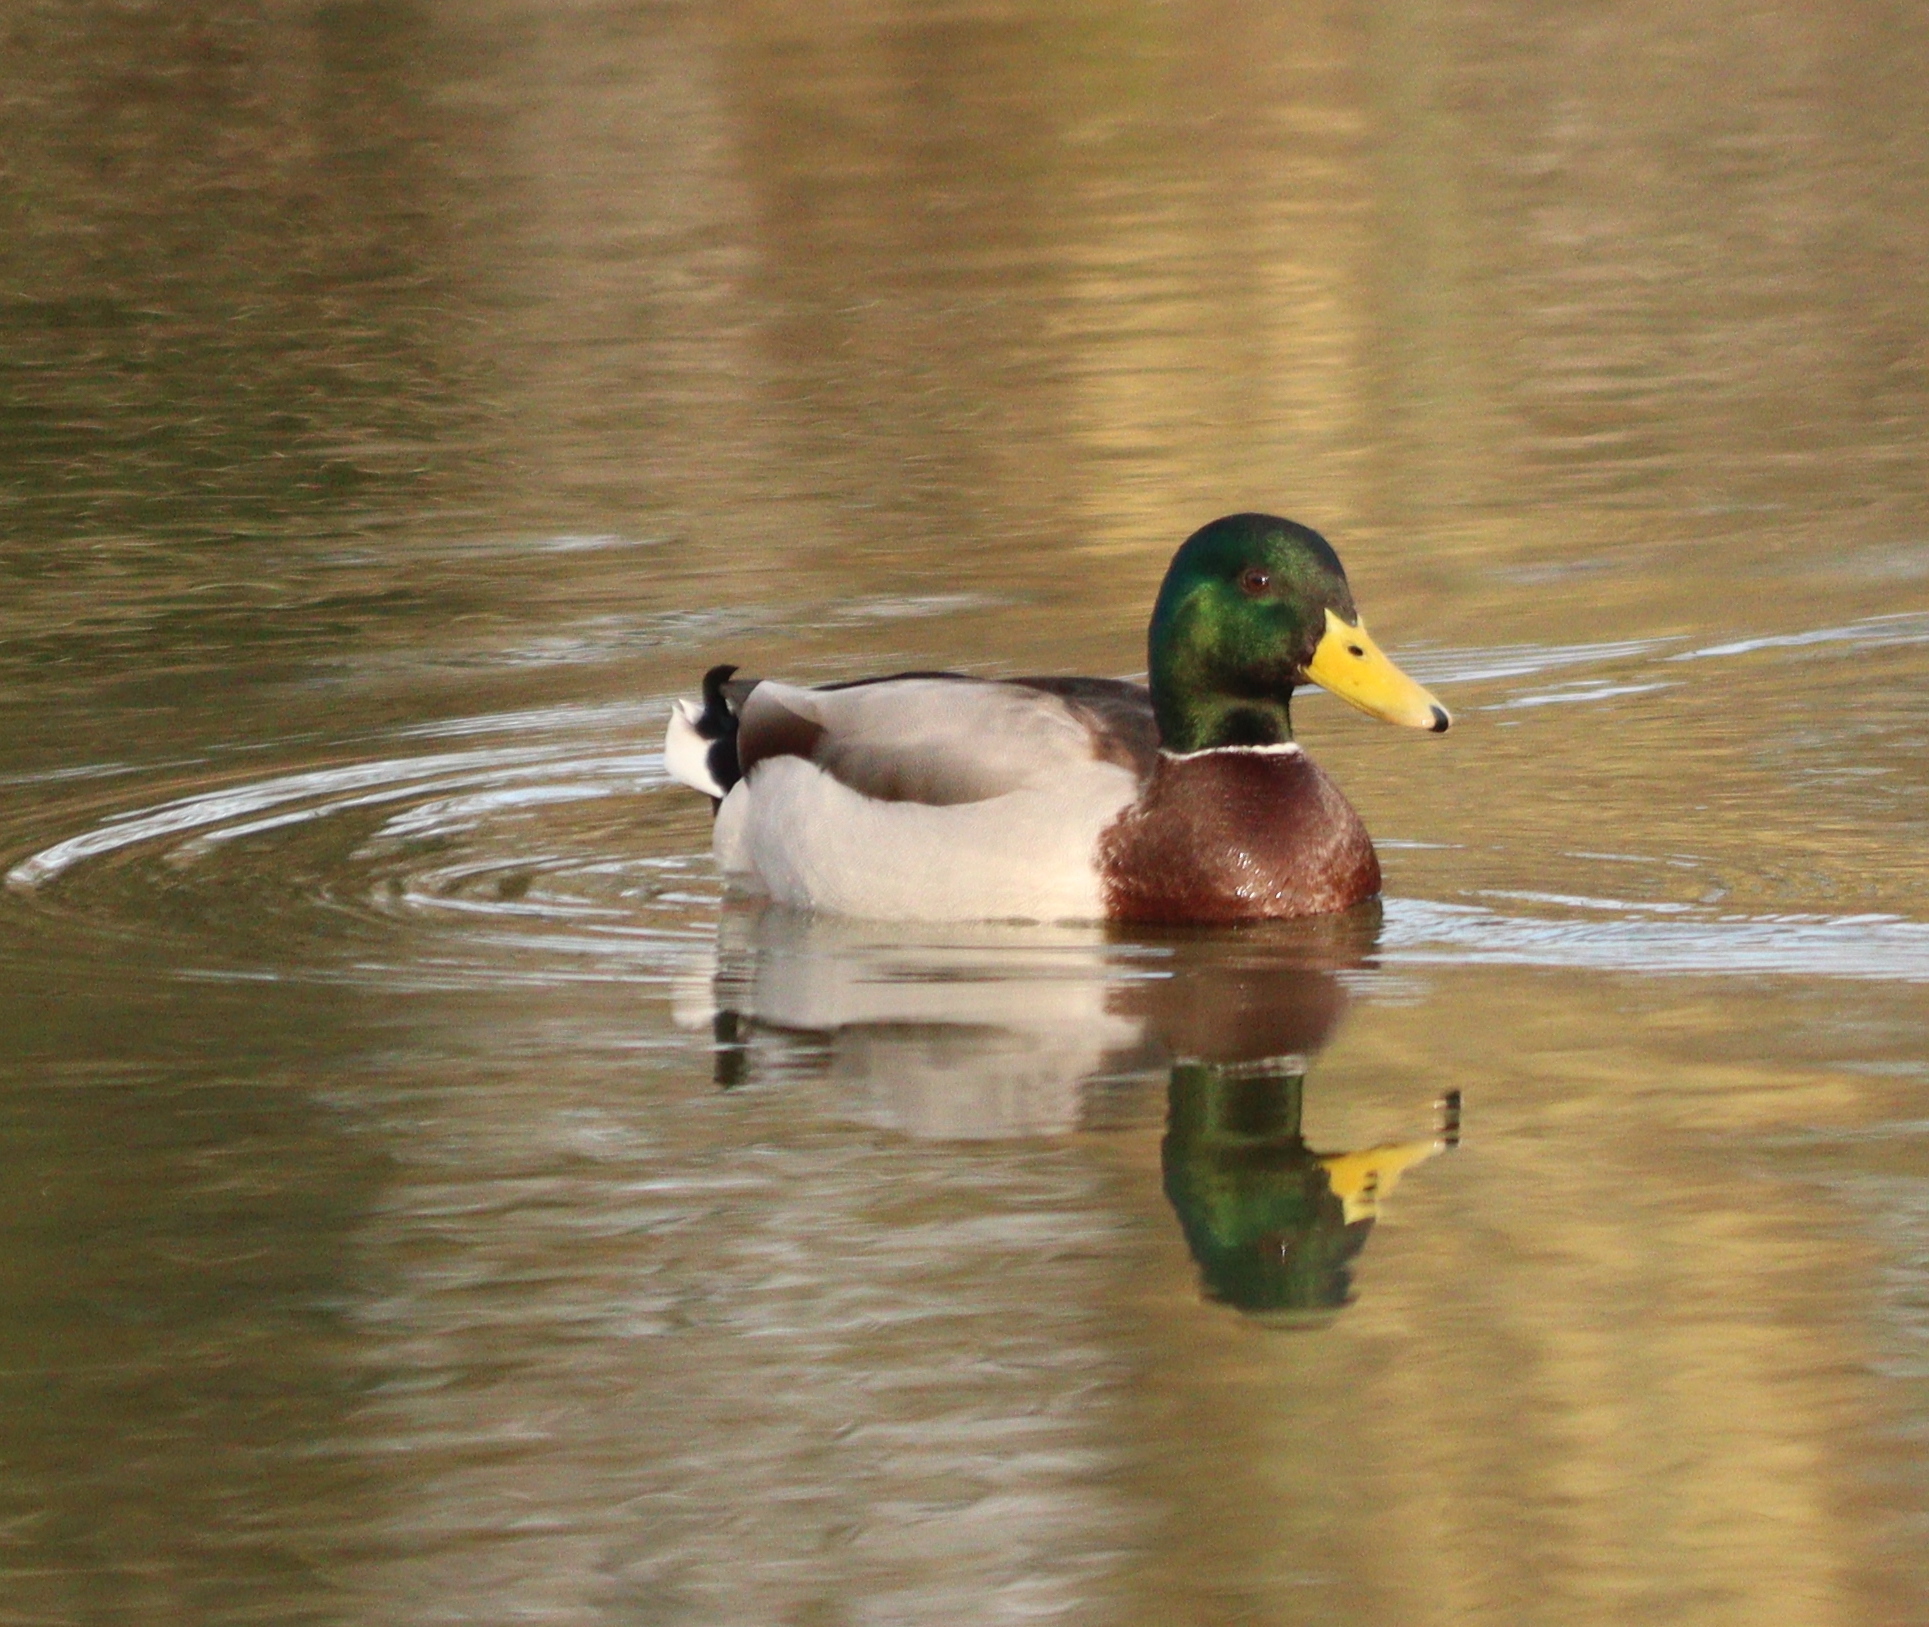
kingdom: Animalia
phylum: Chordata
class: Aves
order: Anseriformes
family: Anatidae
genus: Anas
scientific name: Anas platyrhynchos
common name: Mallard
